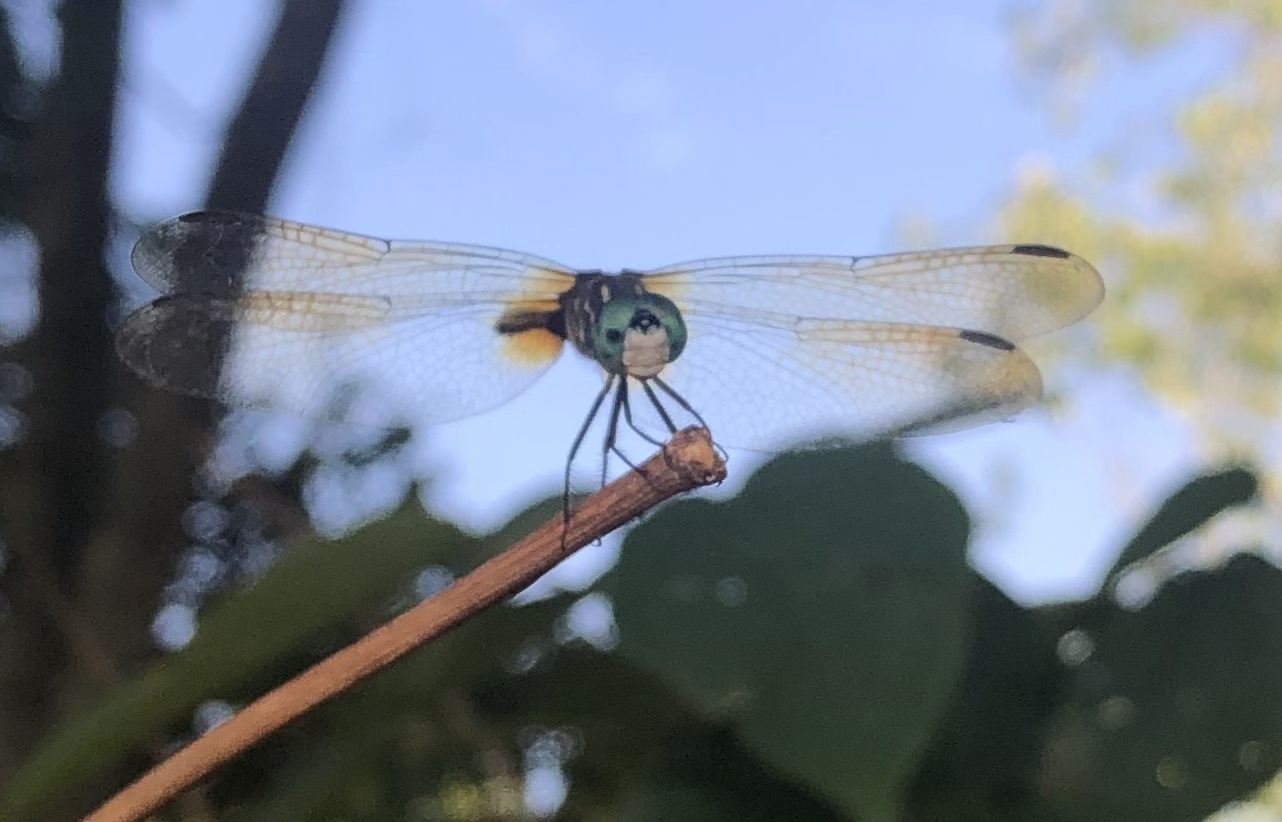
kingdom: Animalia
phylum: Arthropoda
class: Insecta
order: Odonata
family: Libellulidae
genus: Pachydiplax
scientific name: Pachydiplax longipennis
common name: Blue dasher
